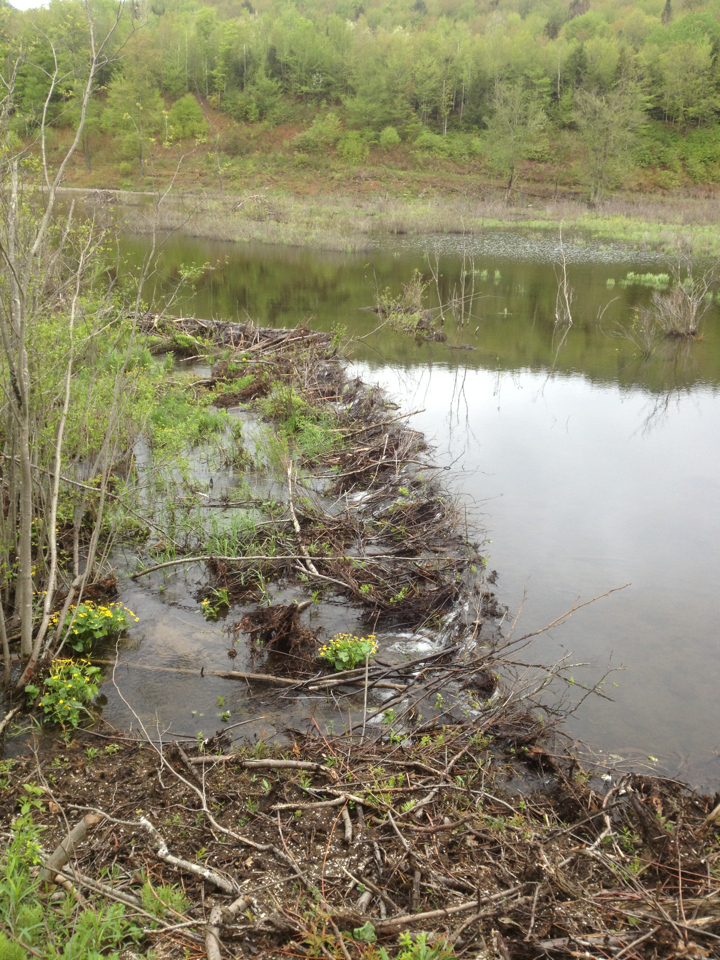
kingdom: Animalia
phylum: Chordata
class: Mammalia
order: Rodentia
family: Castoridae
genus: Castor
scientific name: Castor canadensis
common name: American beaver
